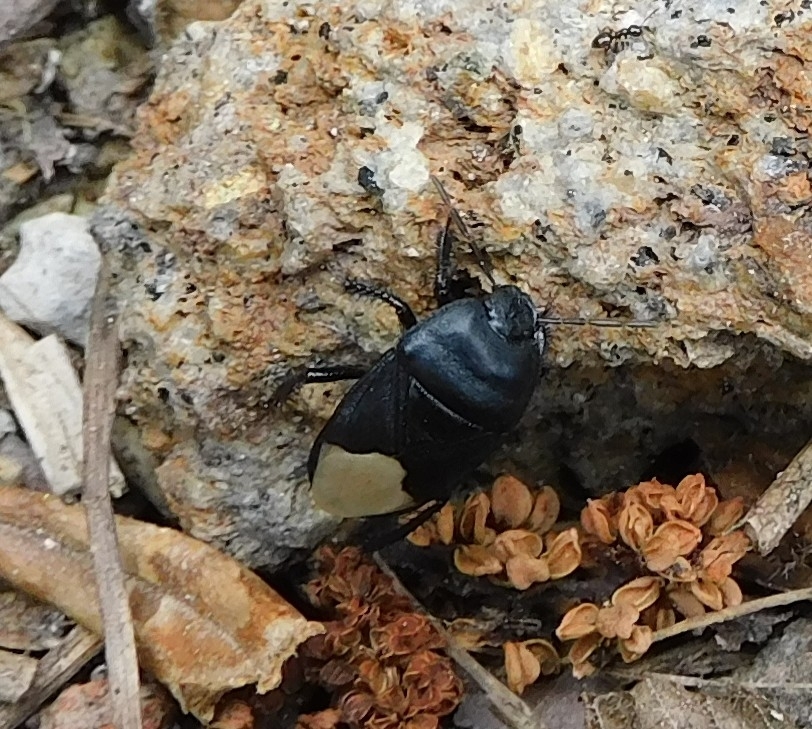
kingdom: Animalia
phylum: Arthropoda
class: Insecta
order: Hemiptera
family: Cydnidae
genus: Cydnus
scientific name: Cydnus aterrimus
